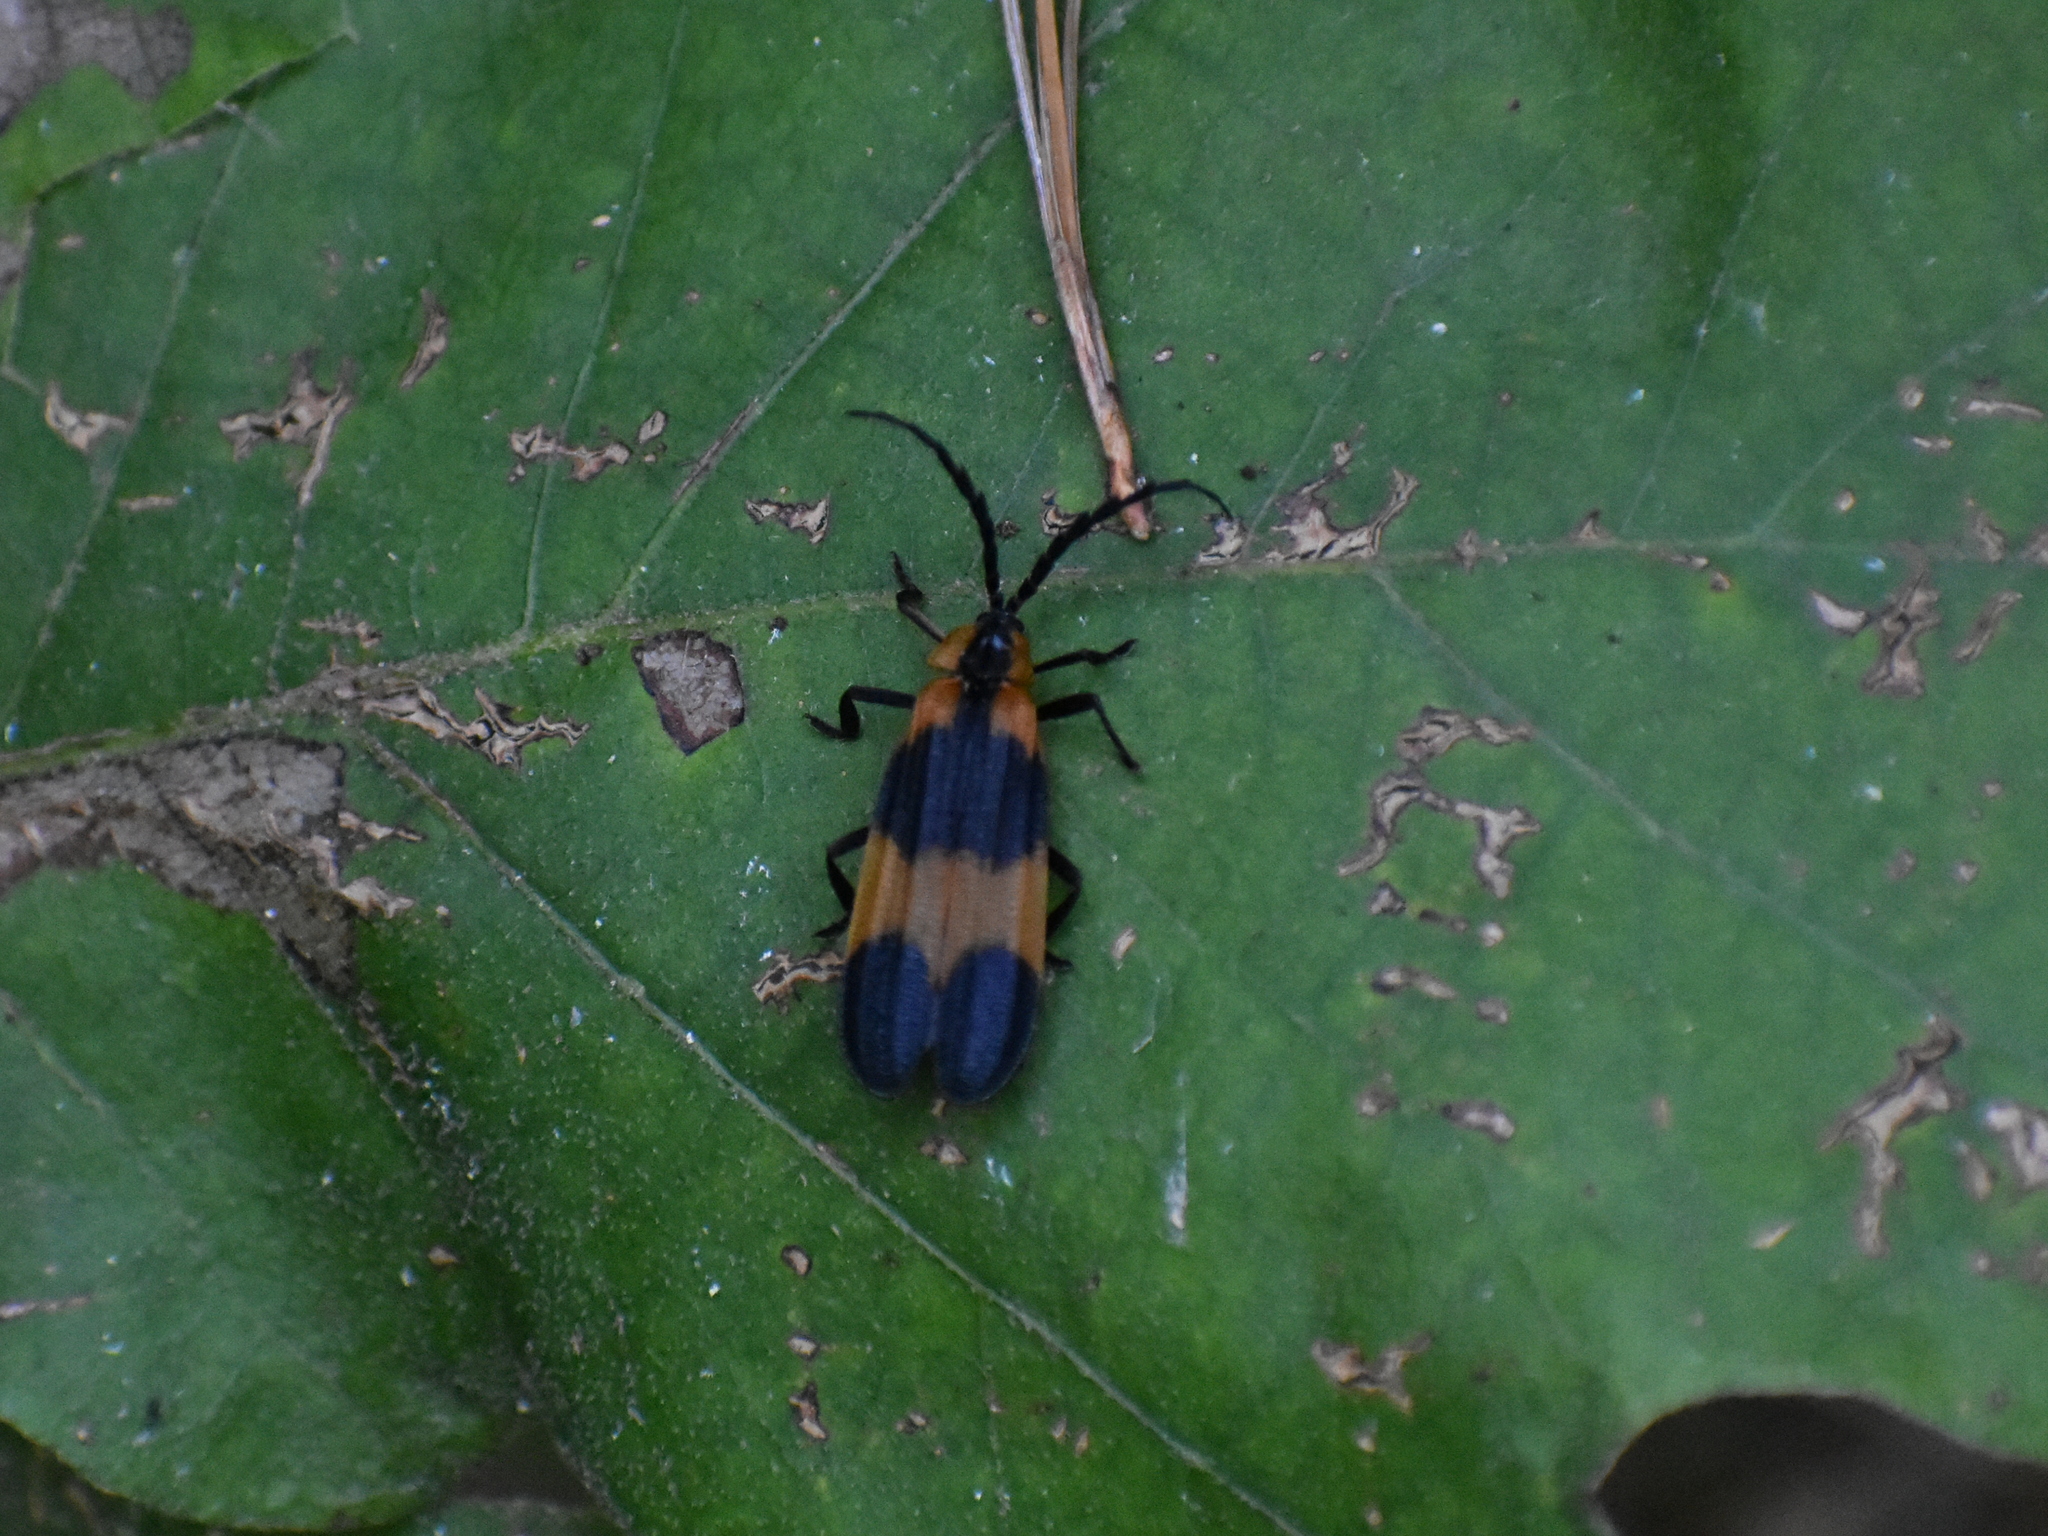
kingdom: Animalia
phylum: Arthropoda
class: Insecta
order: Coleoptera
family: Lycidae
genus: Calopteron
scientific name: Calopteron reticulatum
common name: Banded net-winged beetle
